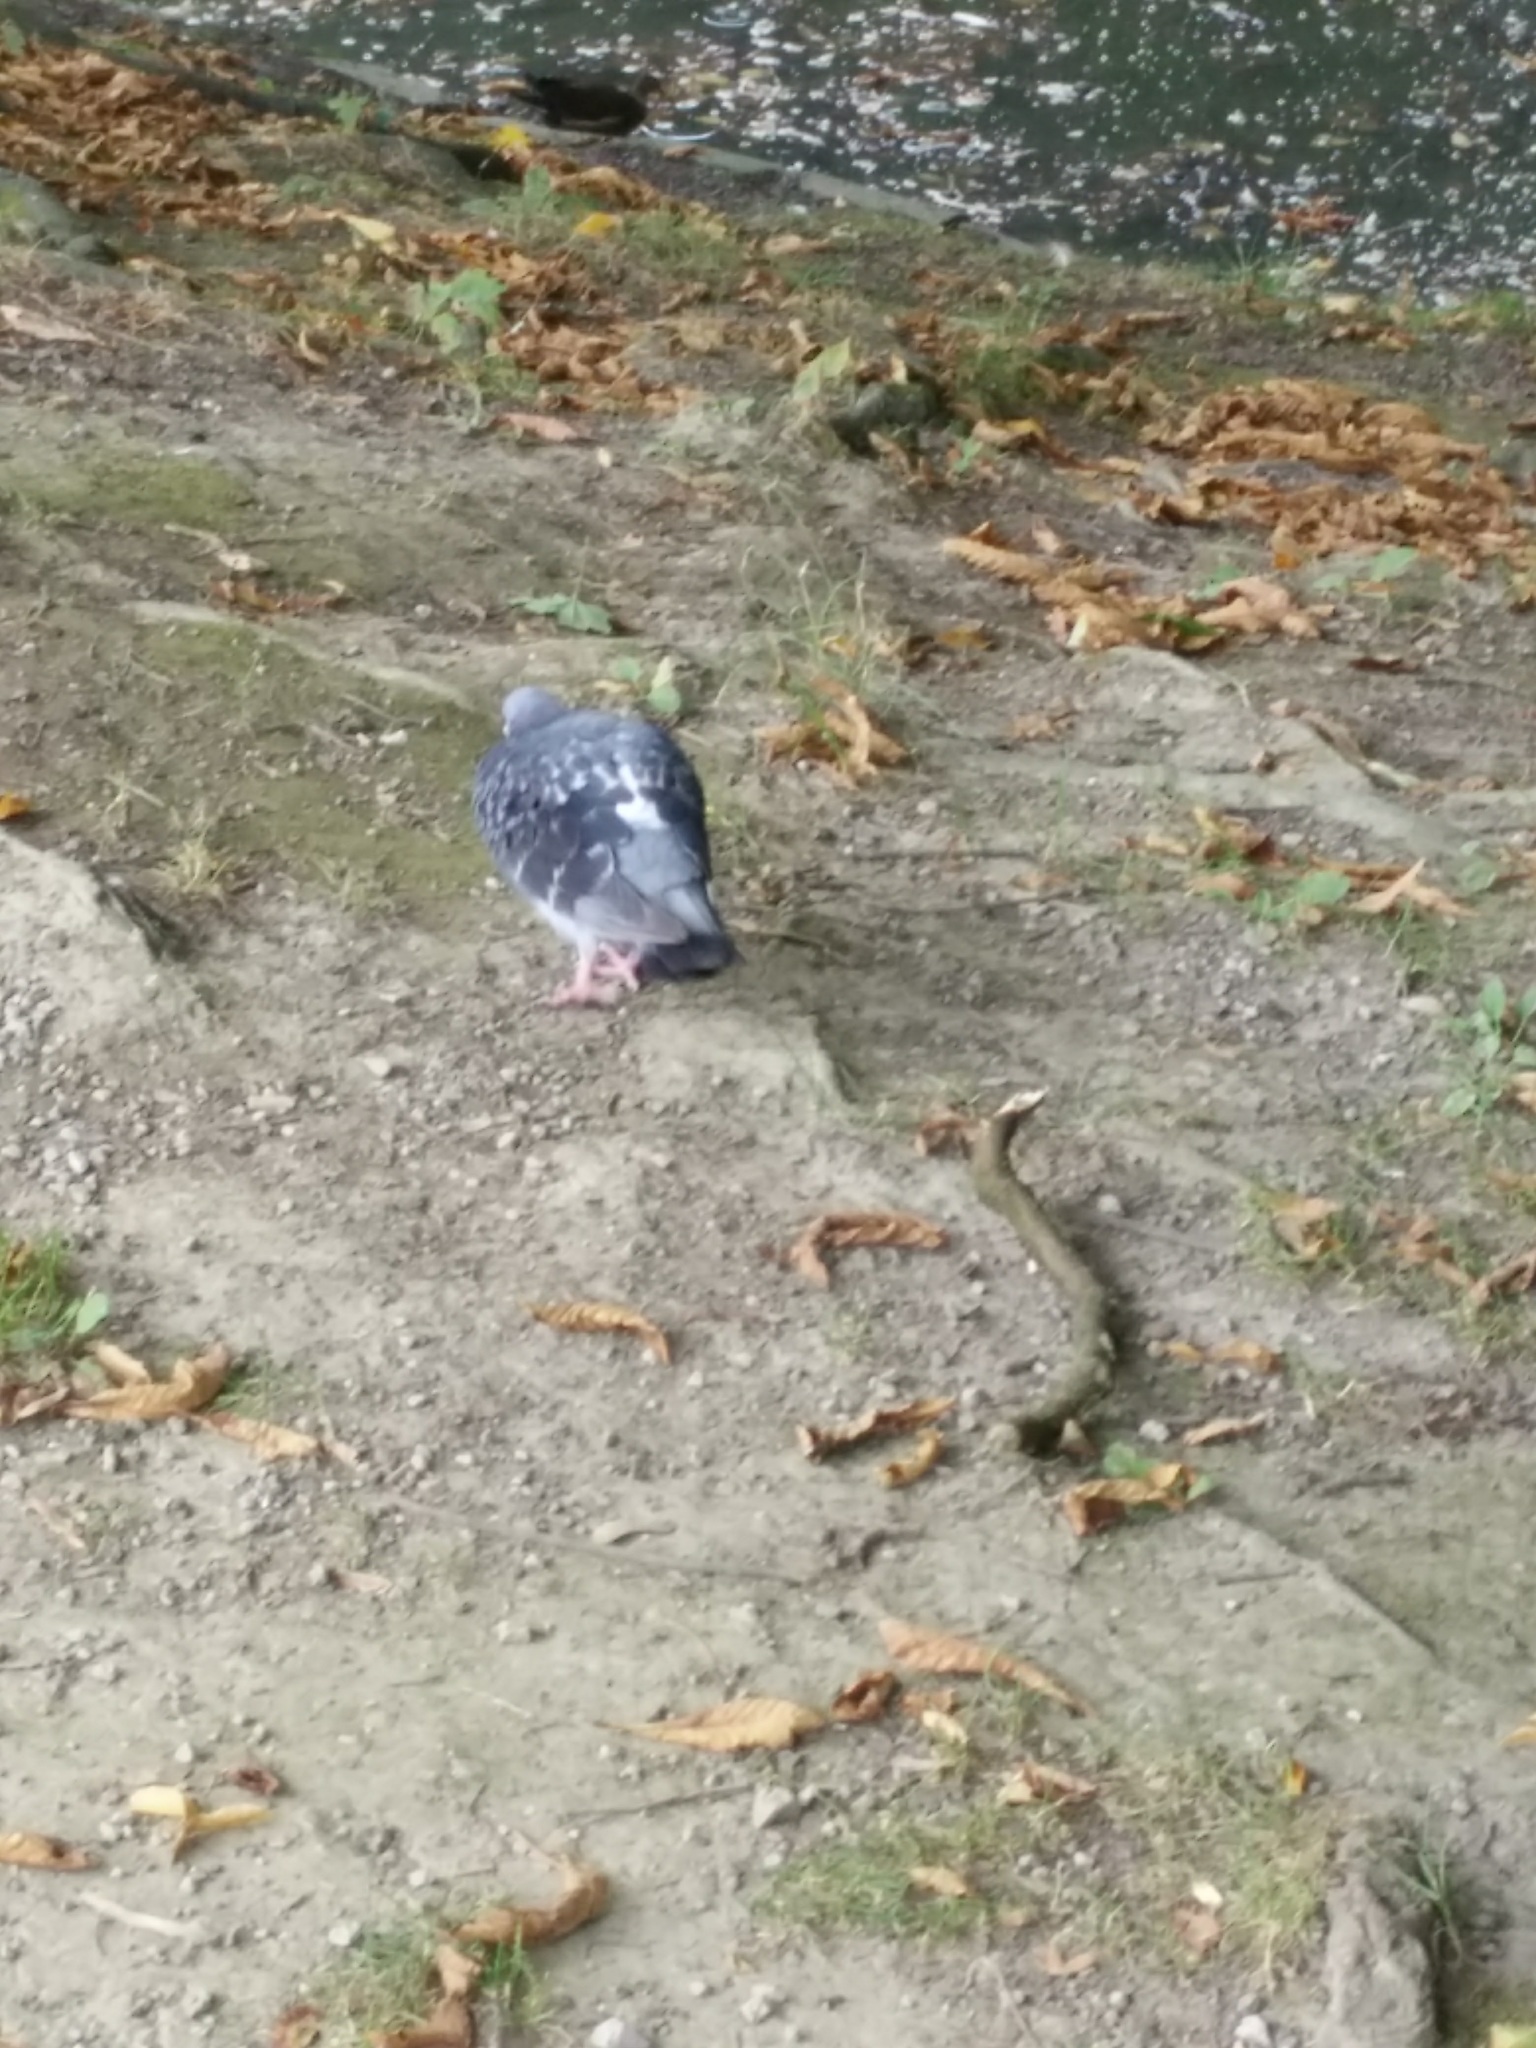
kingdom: Animalia
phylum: Chordata
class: Aves
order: Columbiformes
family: Columbidae
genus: Columba
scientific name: Columba livia
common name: Rock pigeon
